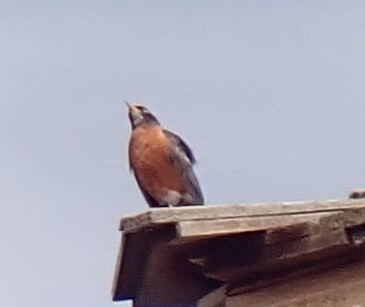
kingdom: Animalia
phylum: Chordata
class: Aves
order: Passeriformes
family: Turdidae
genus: Turdus
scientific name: Turdus migratorius
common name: American robin
